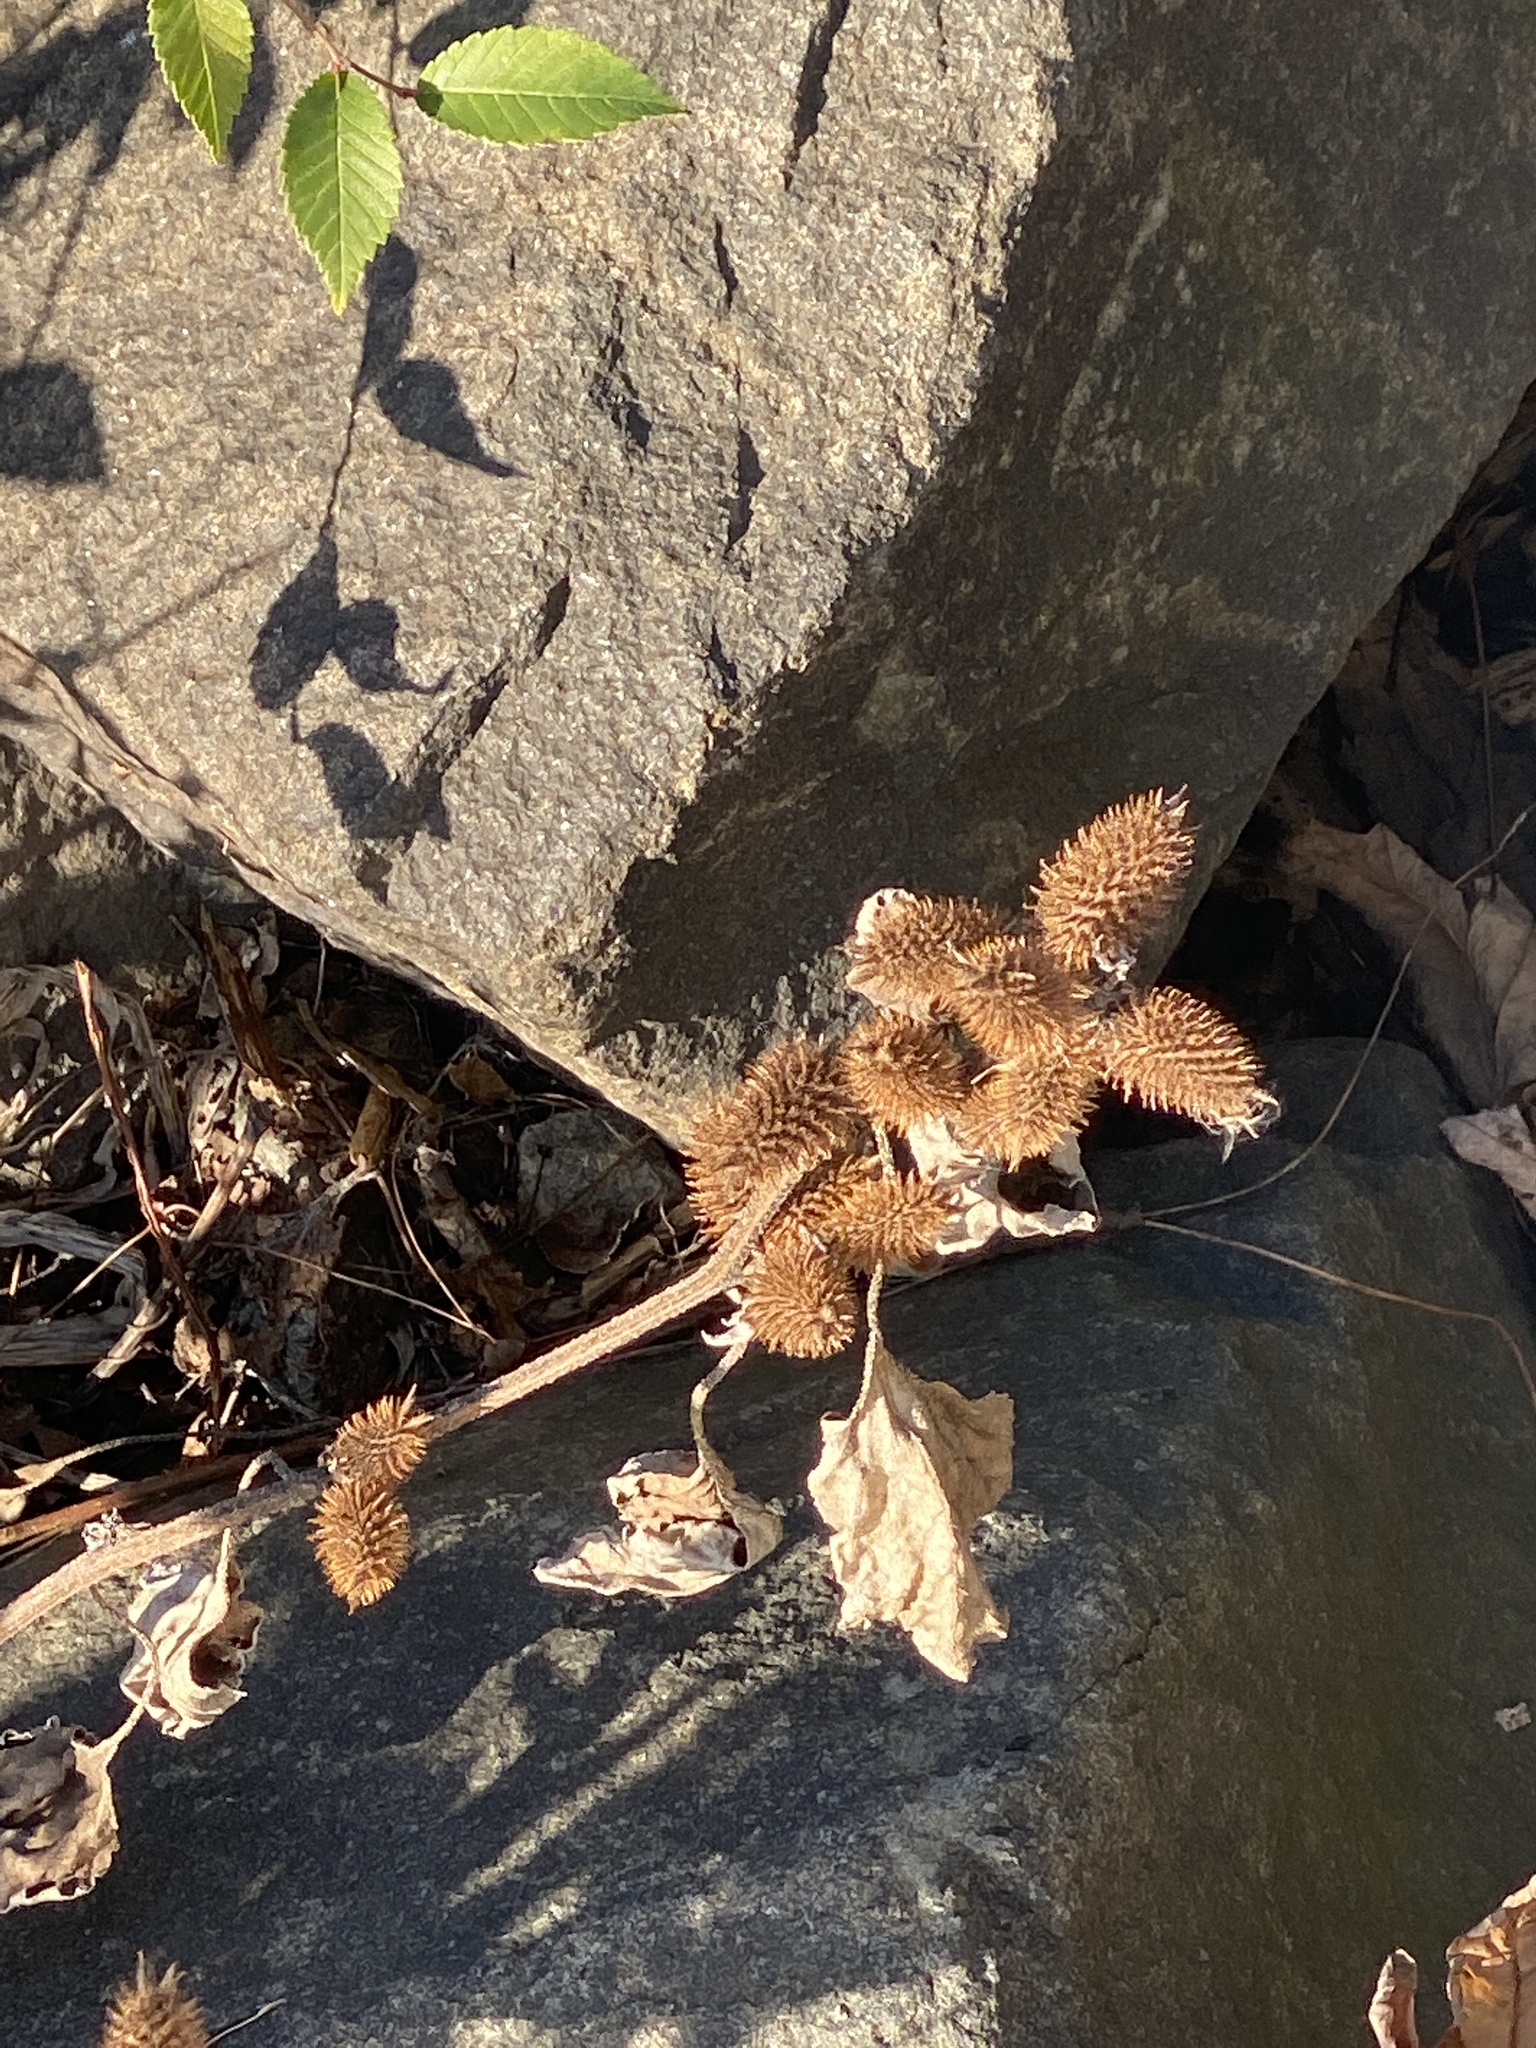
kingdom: Plantae
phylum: Tracheophyta
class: Magnoliopsida
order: Asterales
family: Asteraceae
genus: Xanthium
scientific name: Xanthium strumarium
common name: Rough cocklebur
